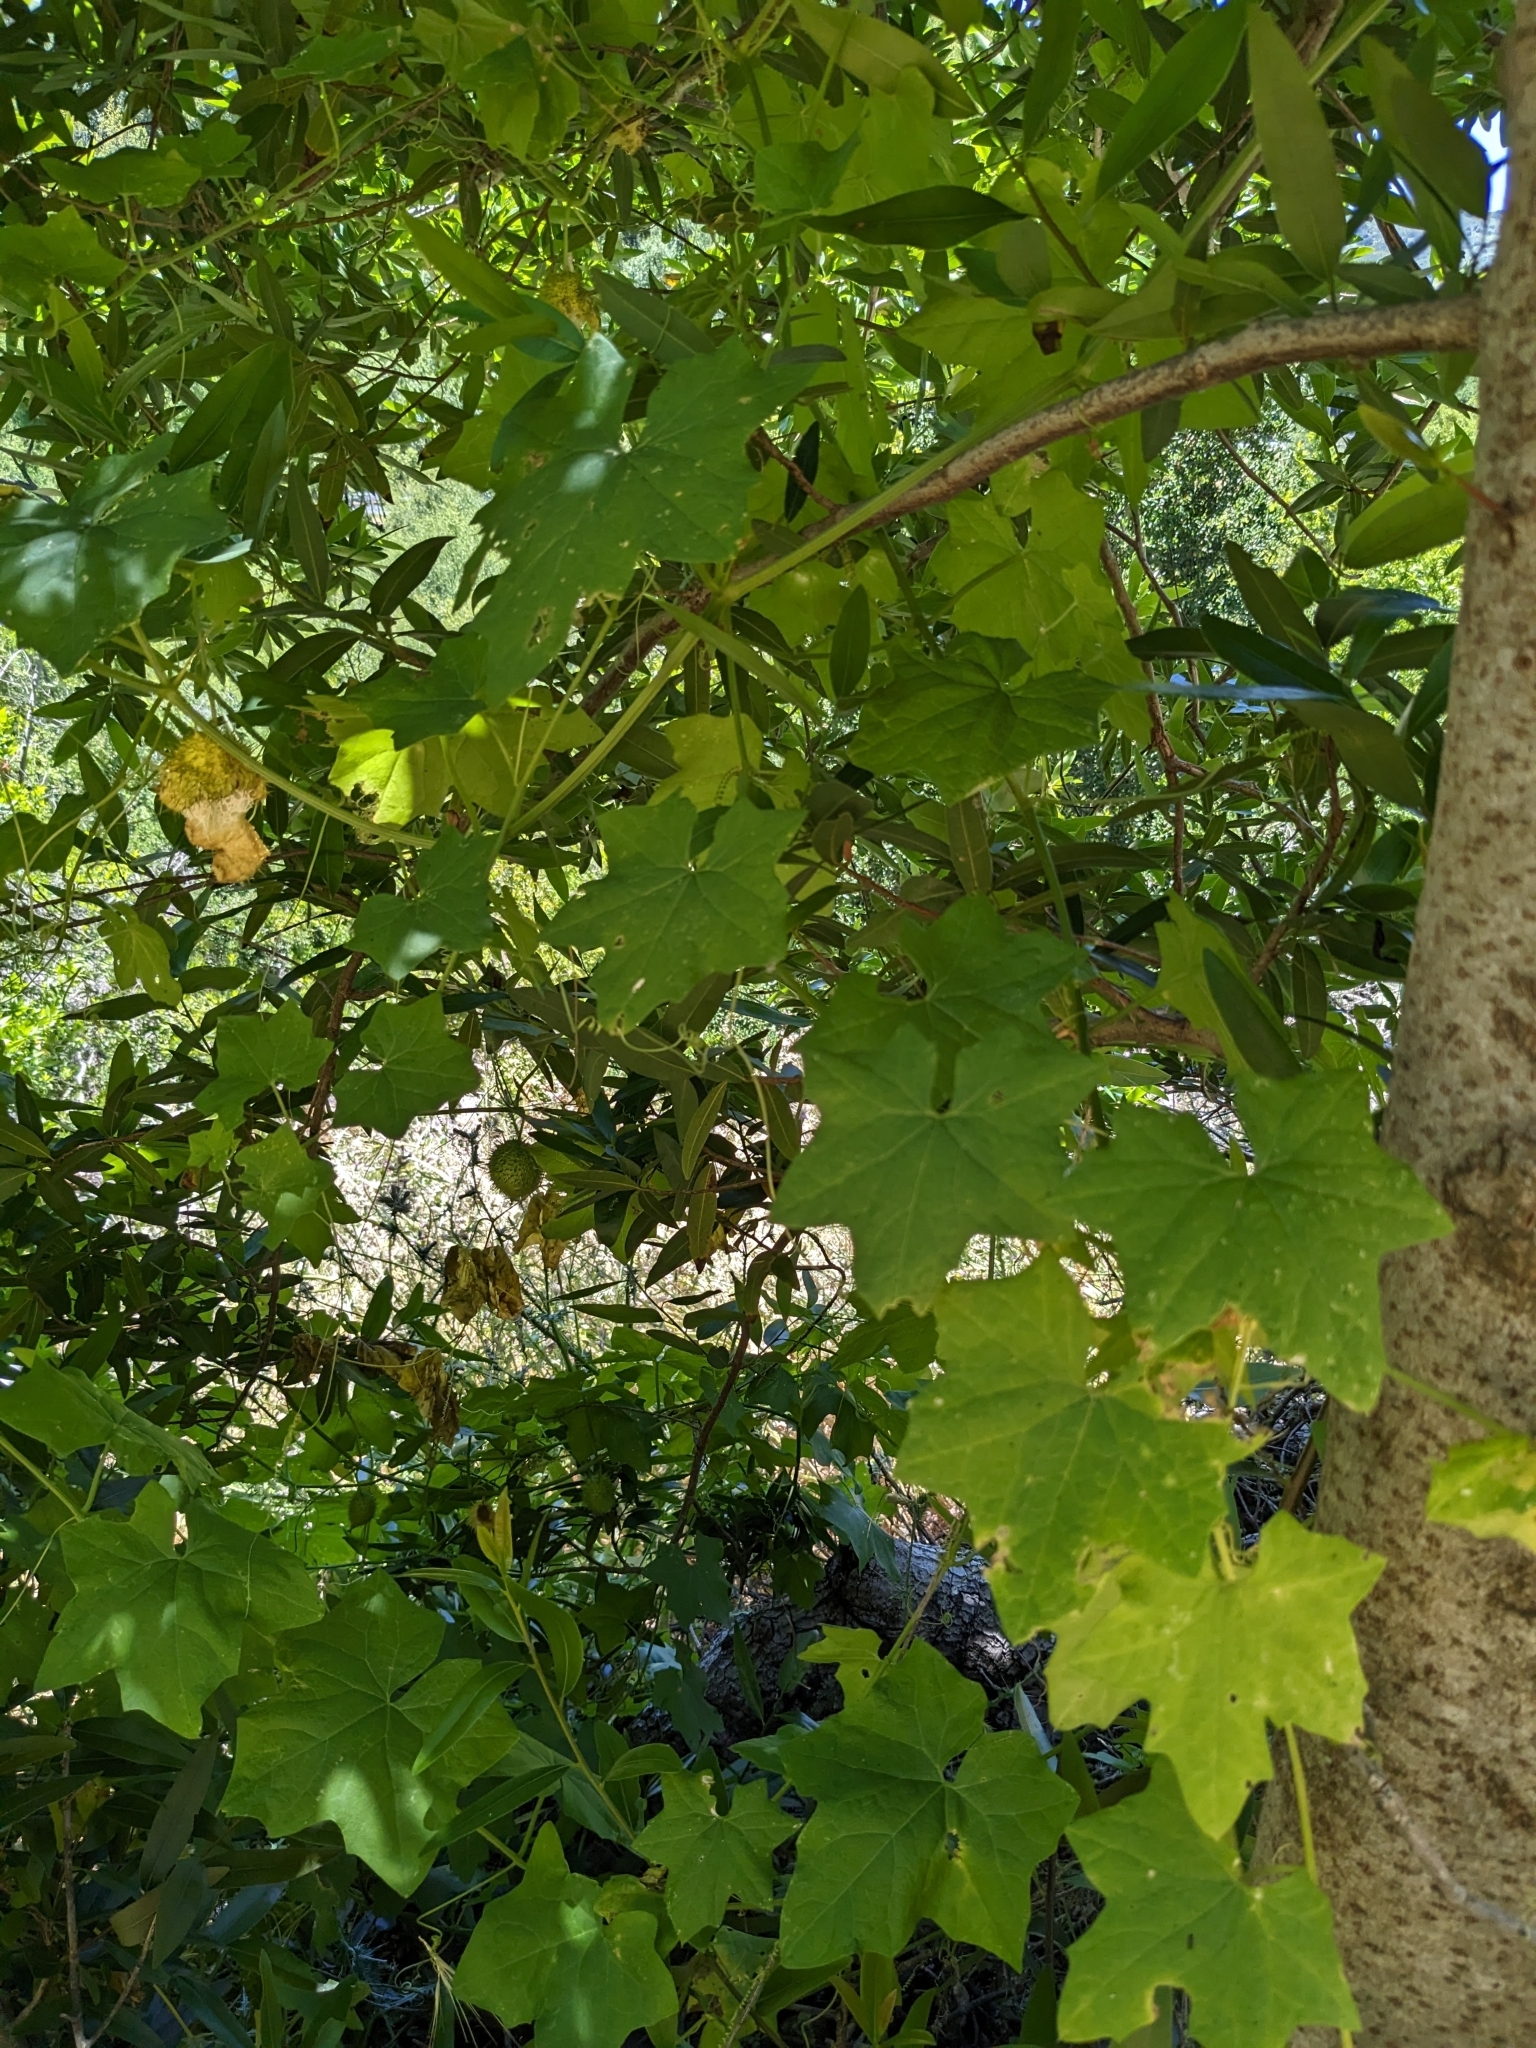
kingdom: Plantae
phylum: Tracheophyta
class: Magnoliopsida
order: Cucurbitales
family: Cucurbitaceae
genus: Marah
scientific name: Marah fabacea
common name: California manroot
